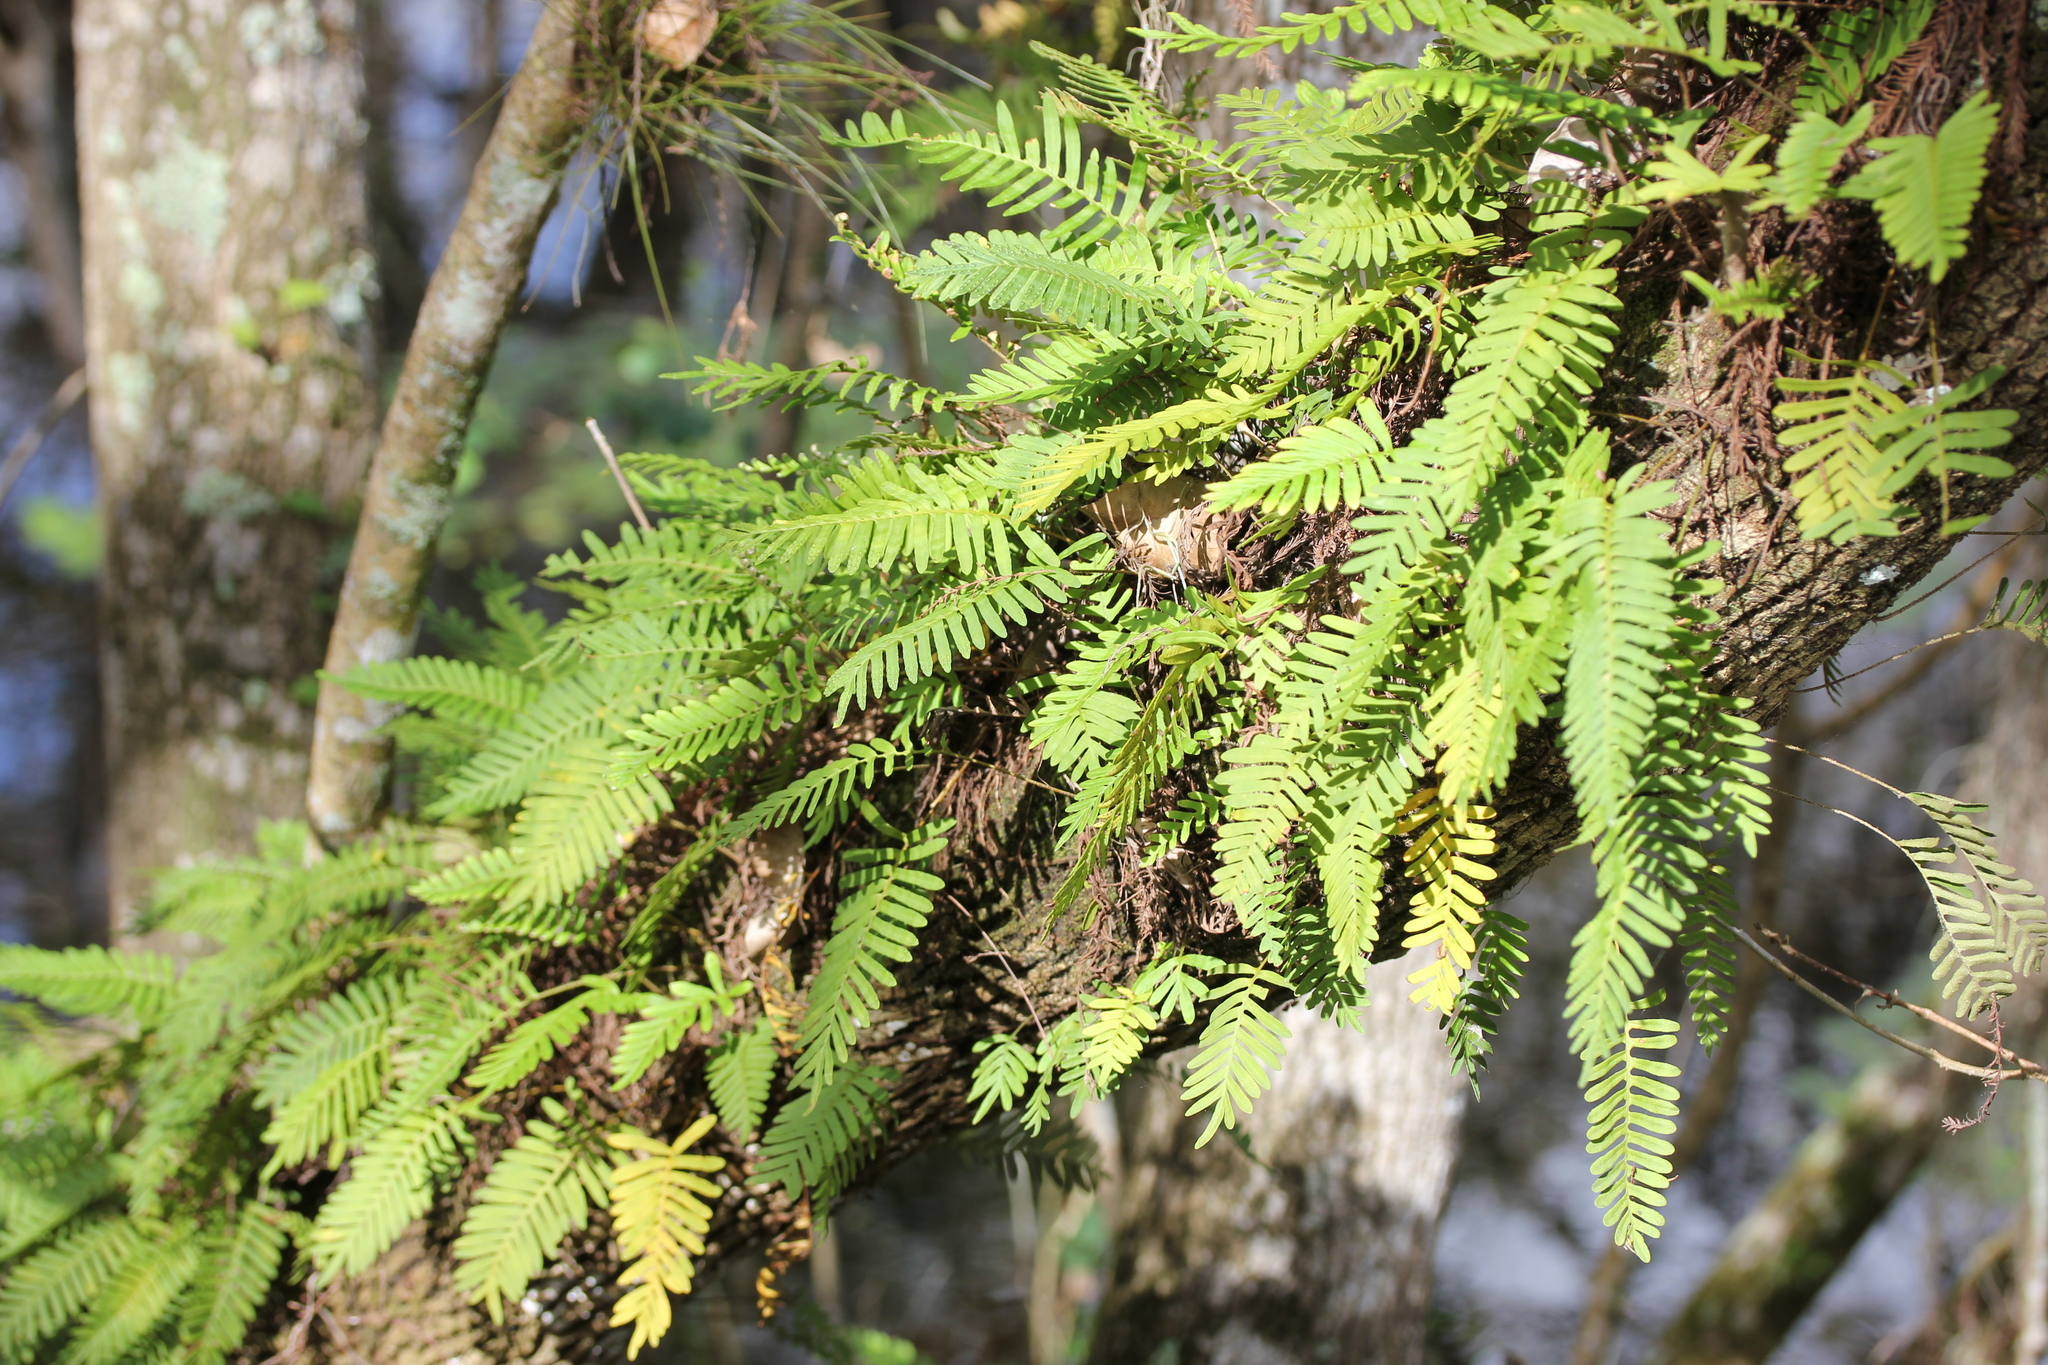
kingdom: Plantae
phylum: Tracheophyta
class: Polypodiopsida
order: Polypodiales
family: Polypodiaceae
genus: Pleopeltis
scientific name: Pleopeltis michauxiana
